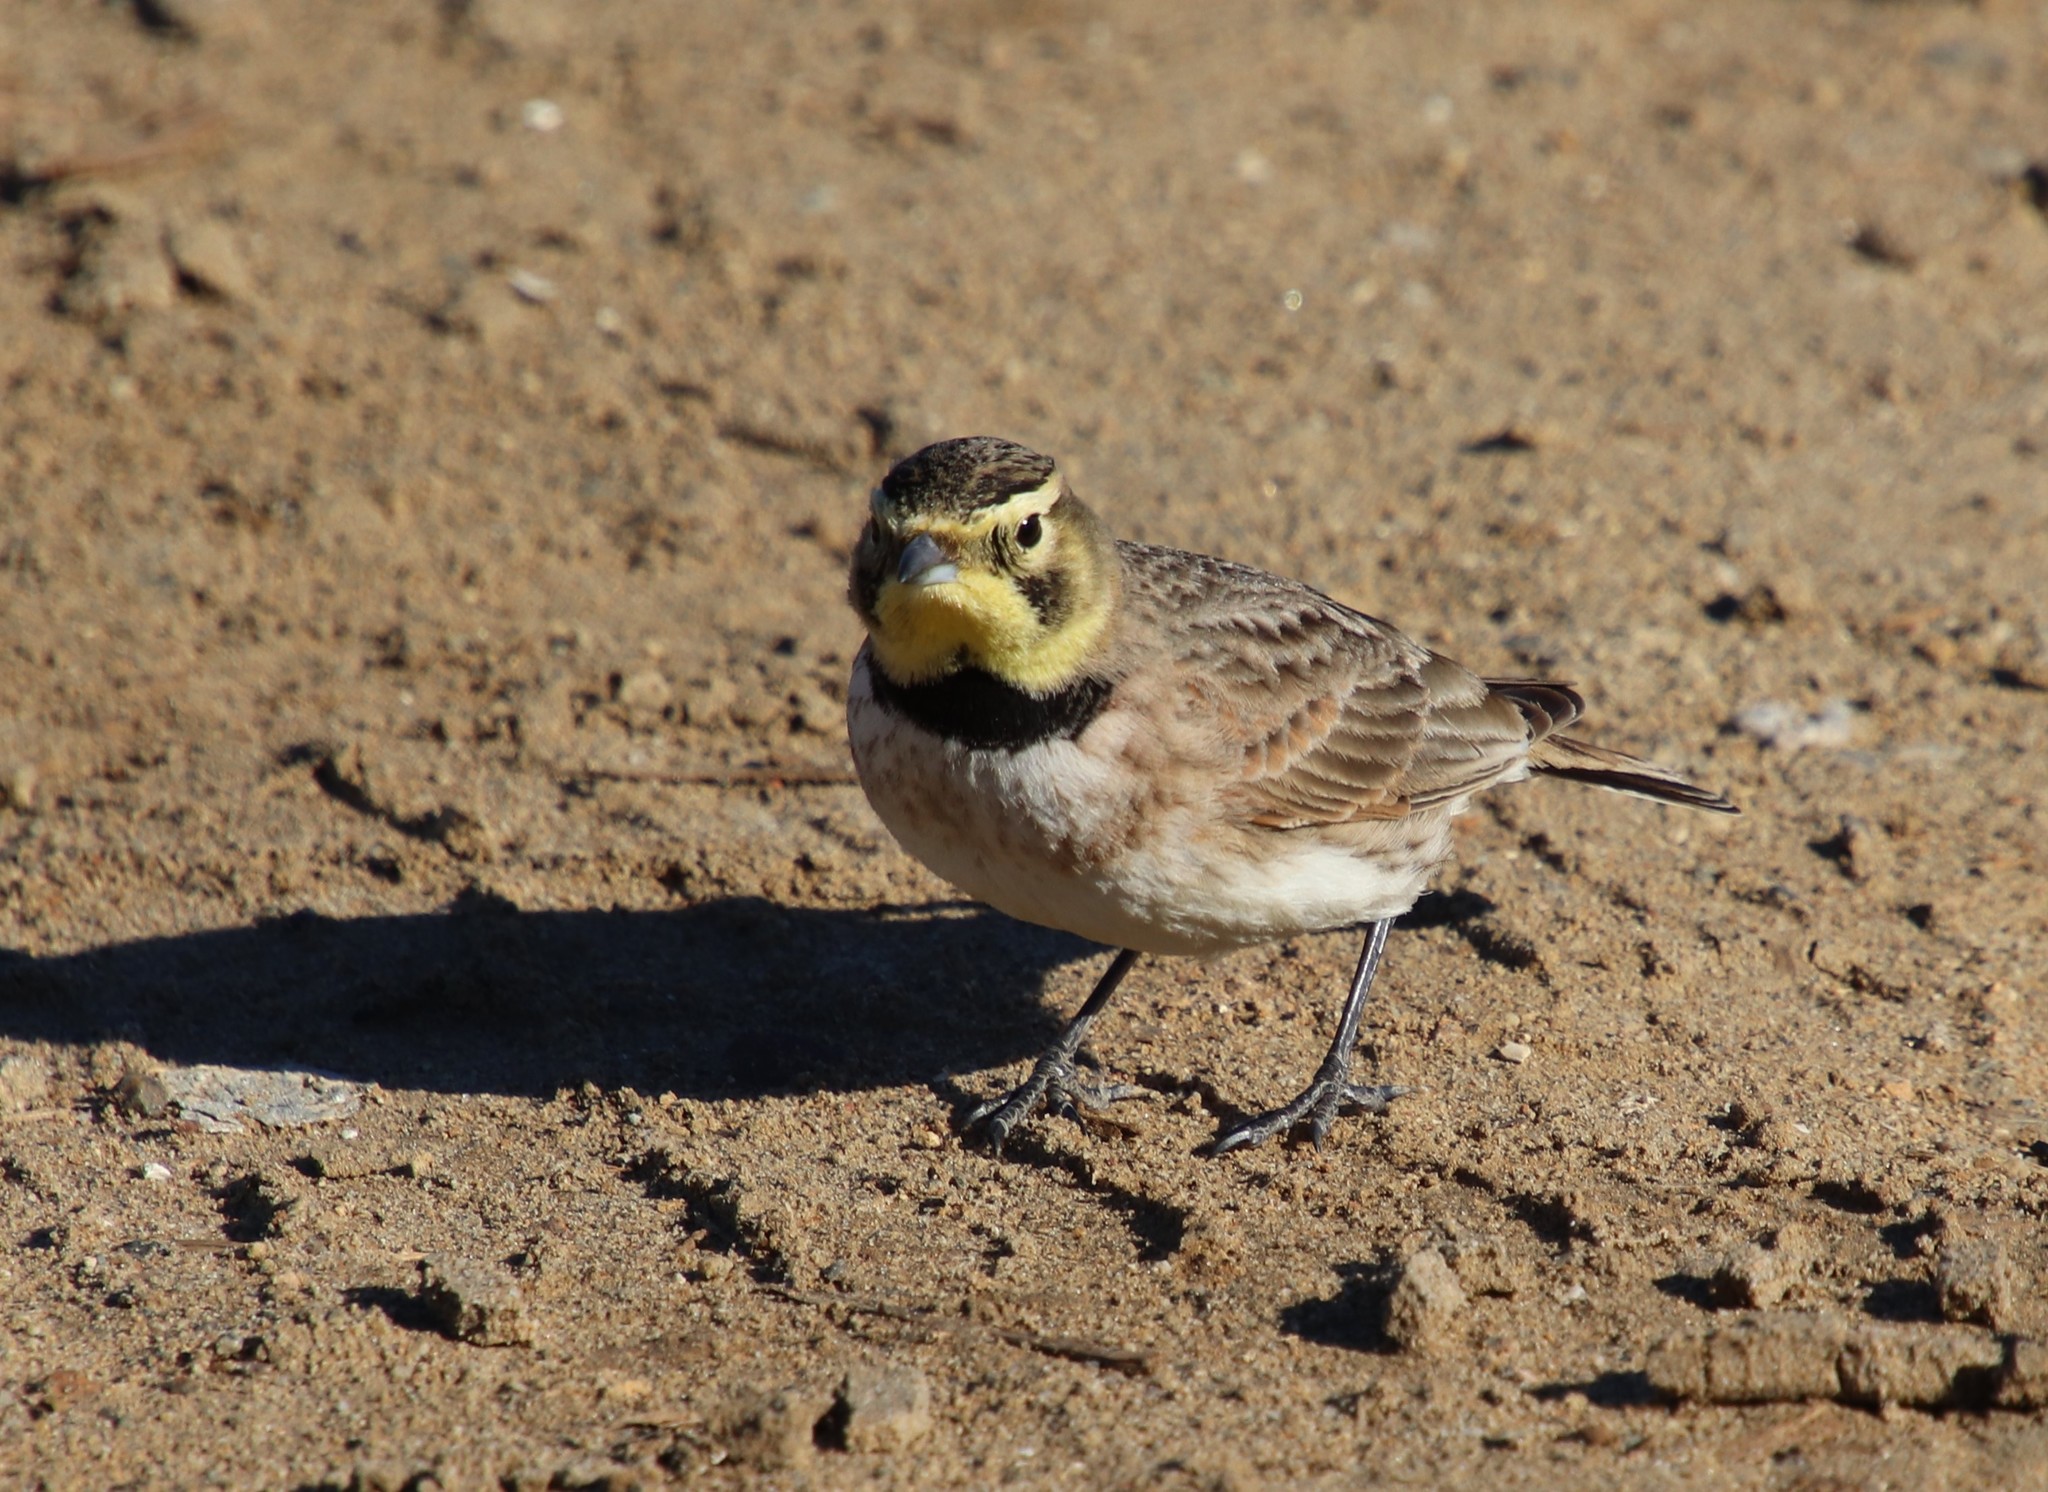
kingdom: Animalia
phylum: Chordata
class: Aves
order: Passeriformes
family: Alaudidae
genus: Eremophila
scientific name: Eremophila alpestris
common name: Horned lark
